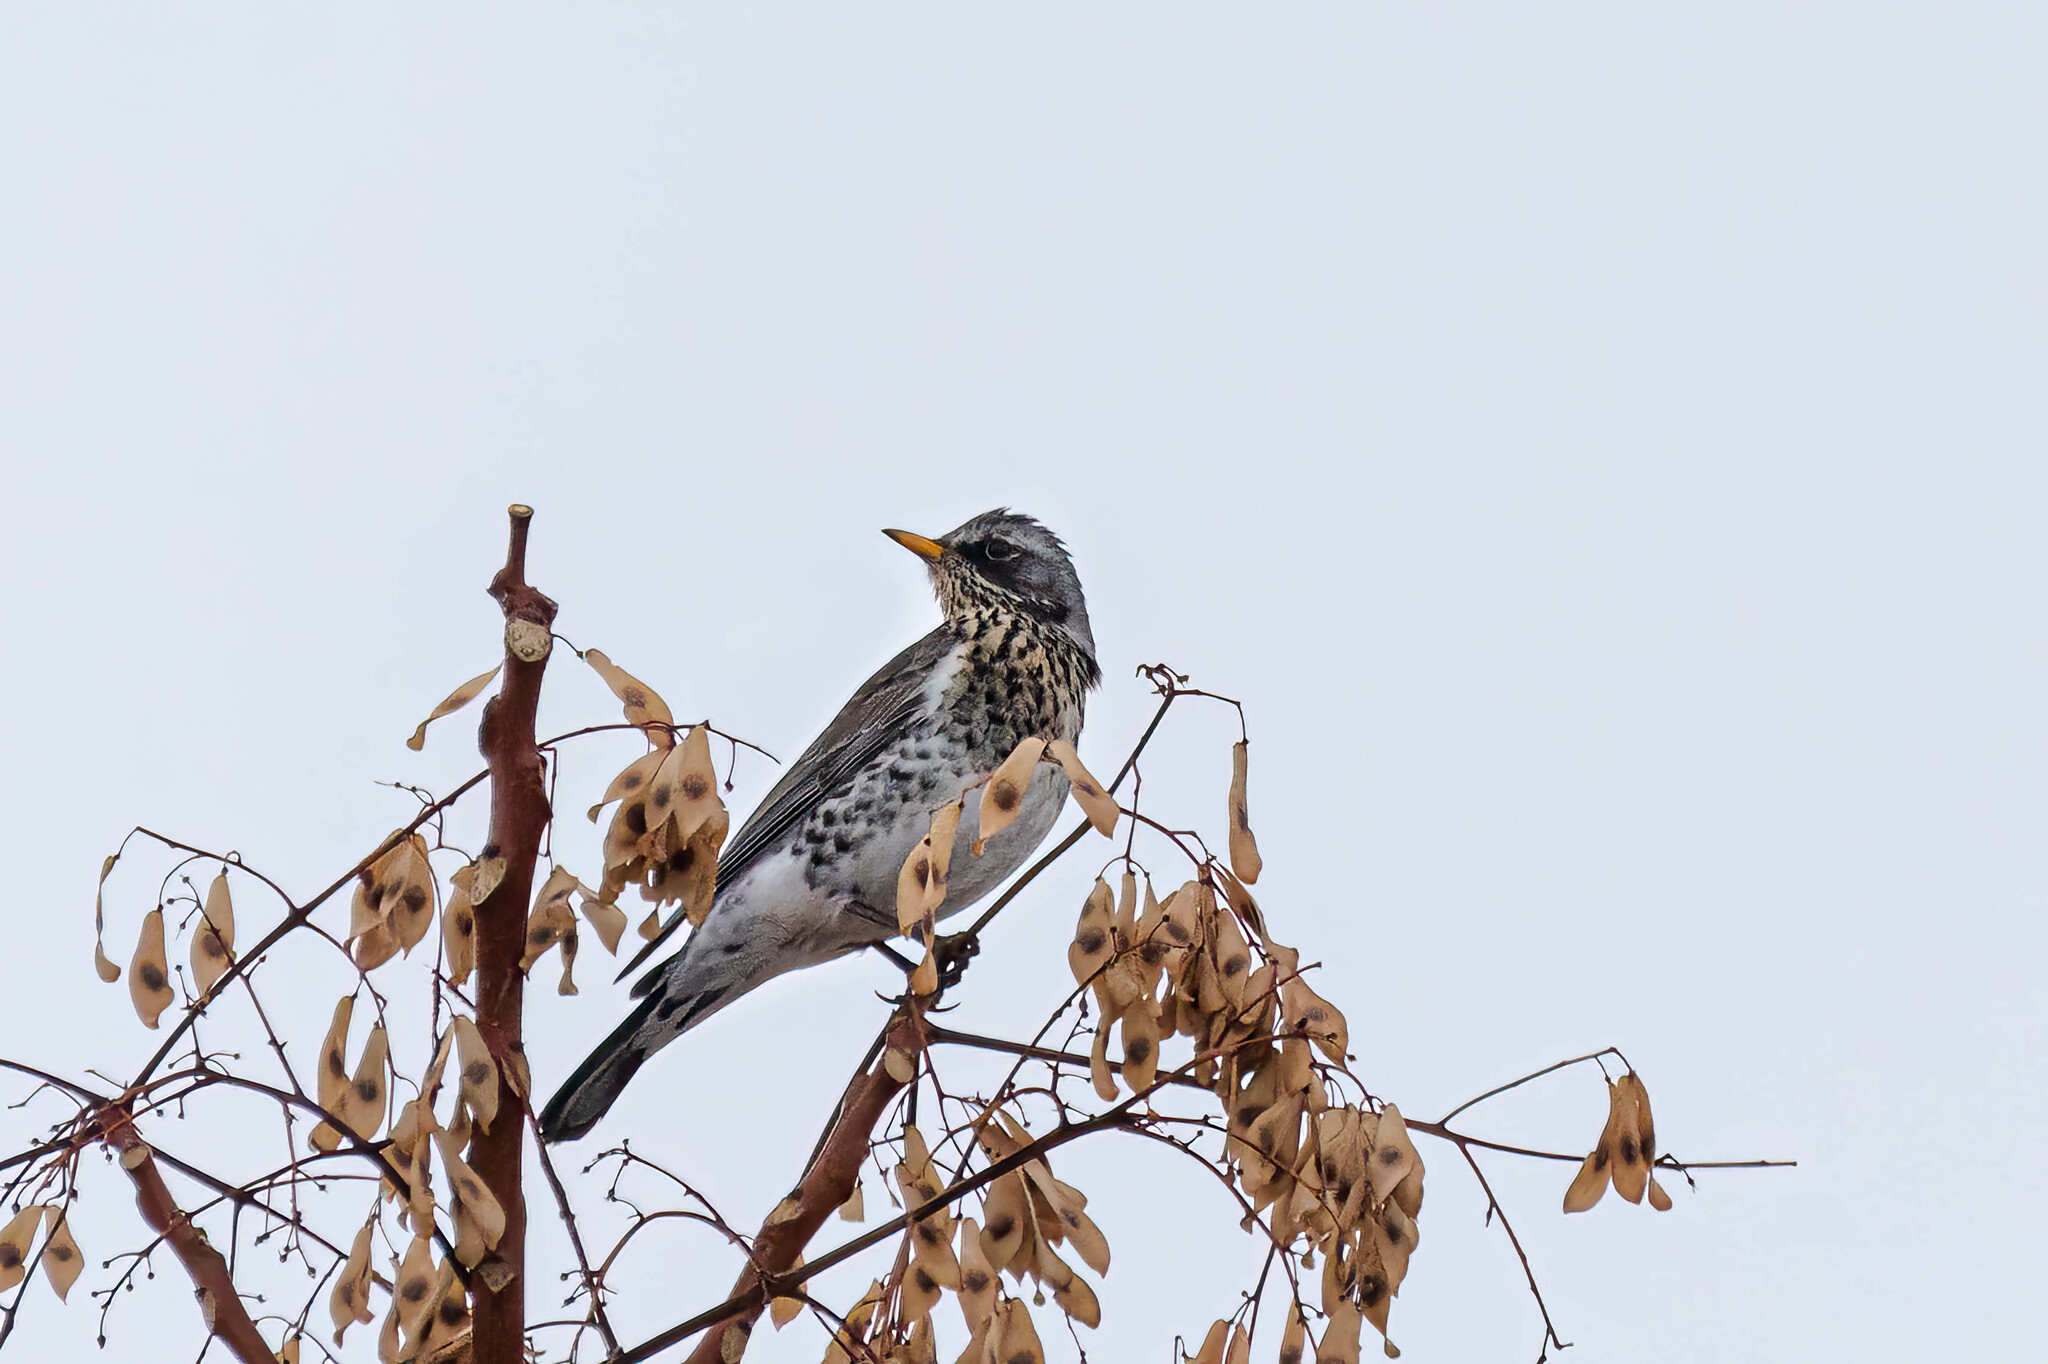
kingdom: Animalia
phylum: Chordata
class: Aves
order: Passeriformes
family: Turdidae
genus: Turdus
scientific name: Turdus pilaris
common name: Fieldfare
